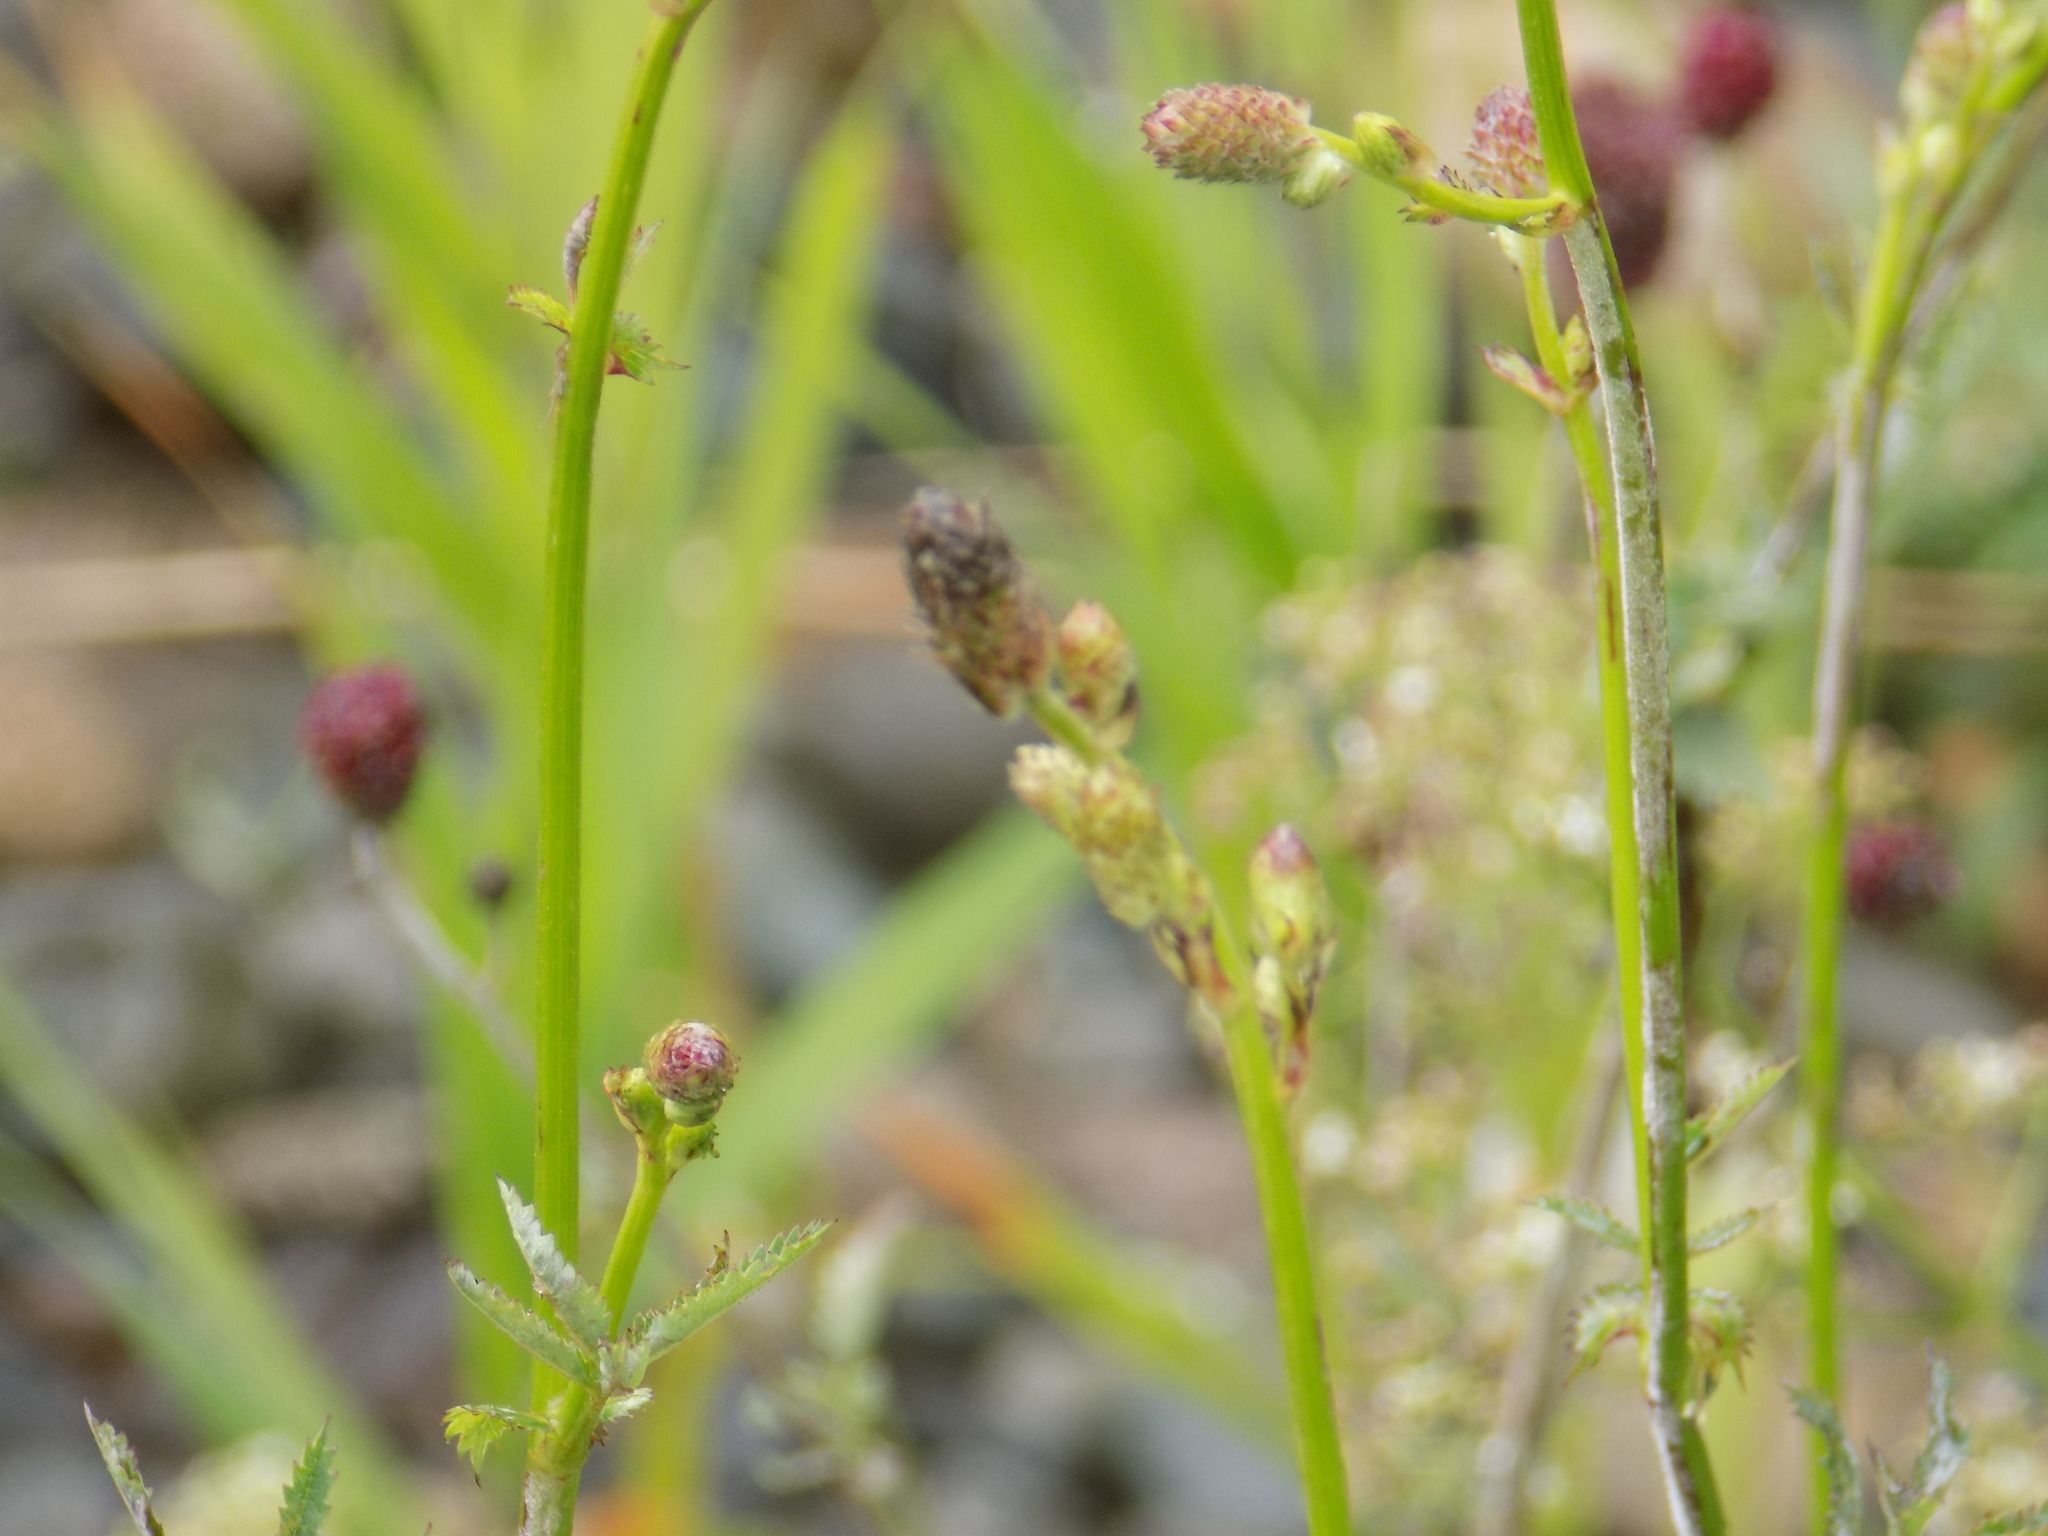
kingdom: Plantae
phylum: Tracheophyta
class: Magnoliopsida
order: Rosales
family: Rosaceae
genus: Sanguisorba
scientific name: Sanguisorba officinalis
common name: Great burnet
